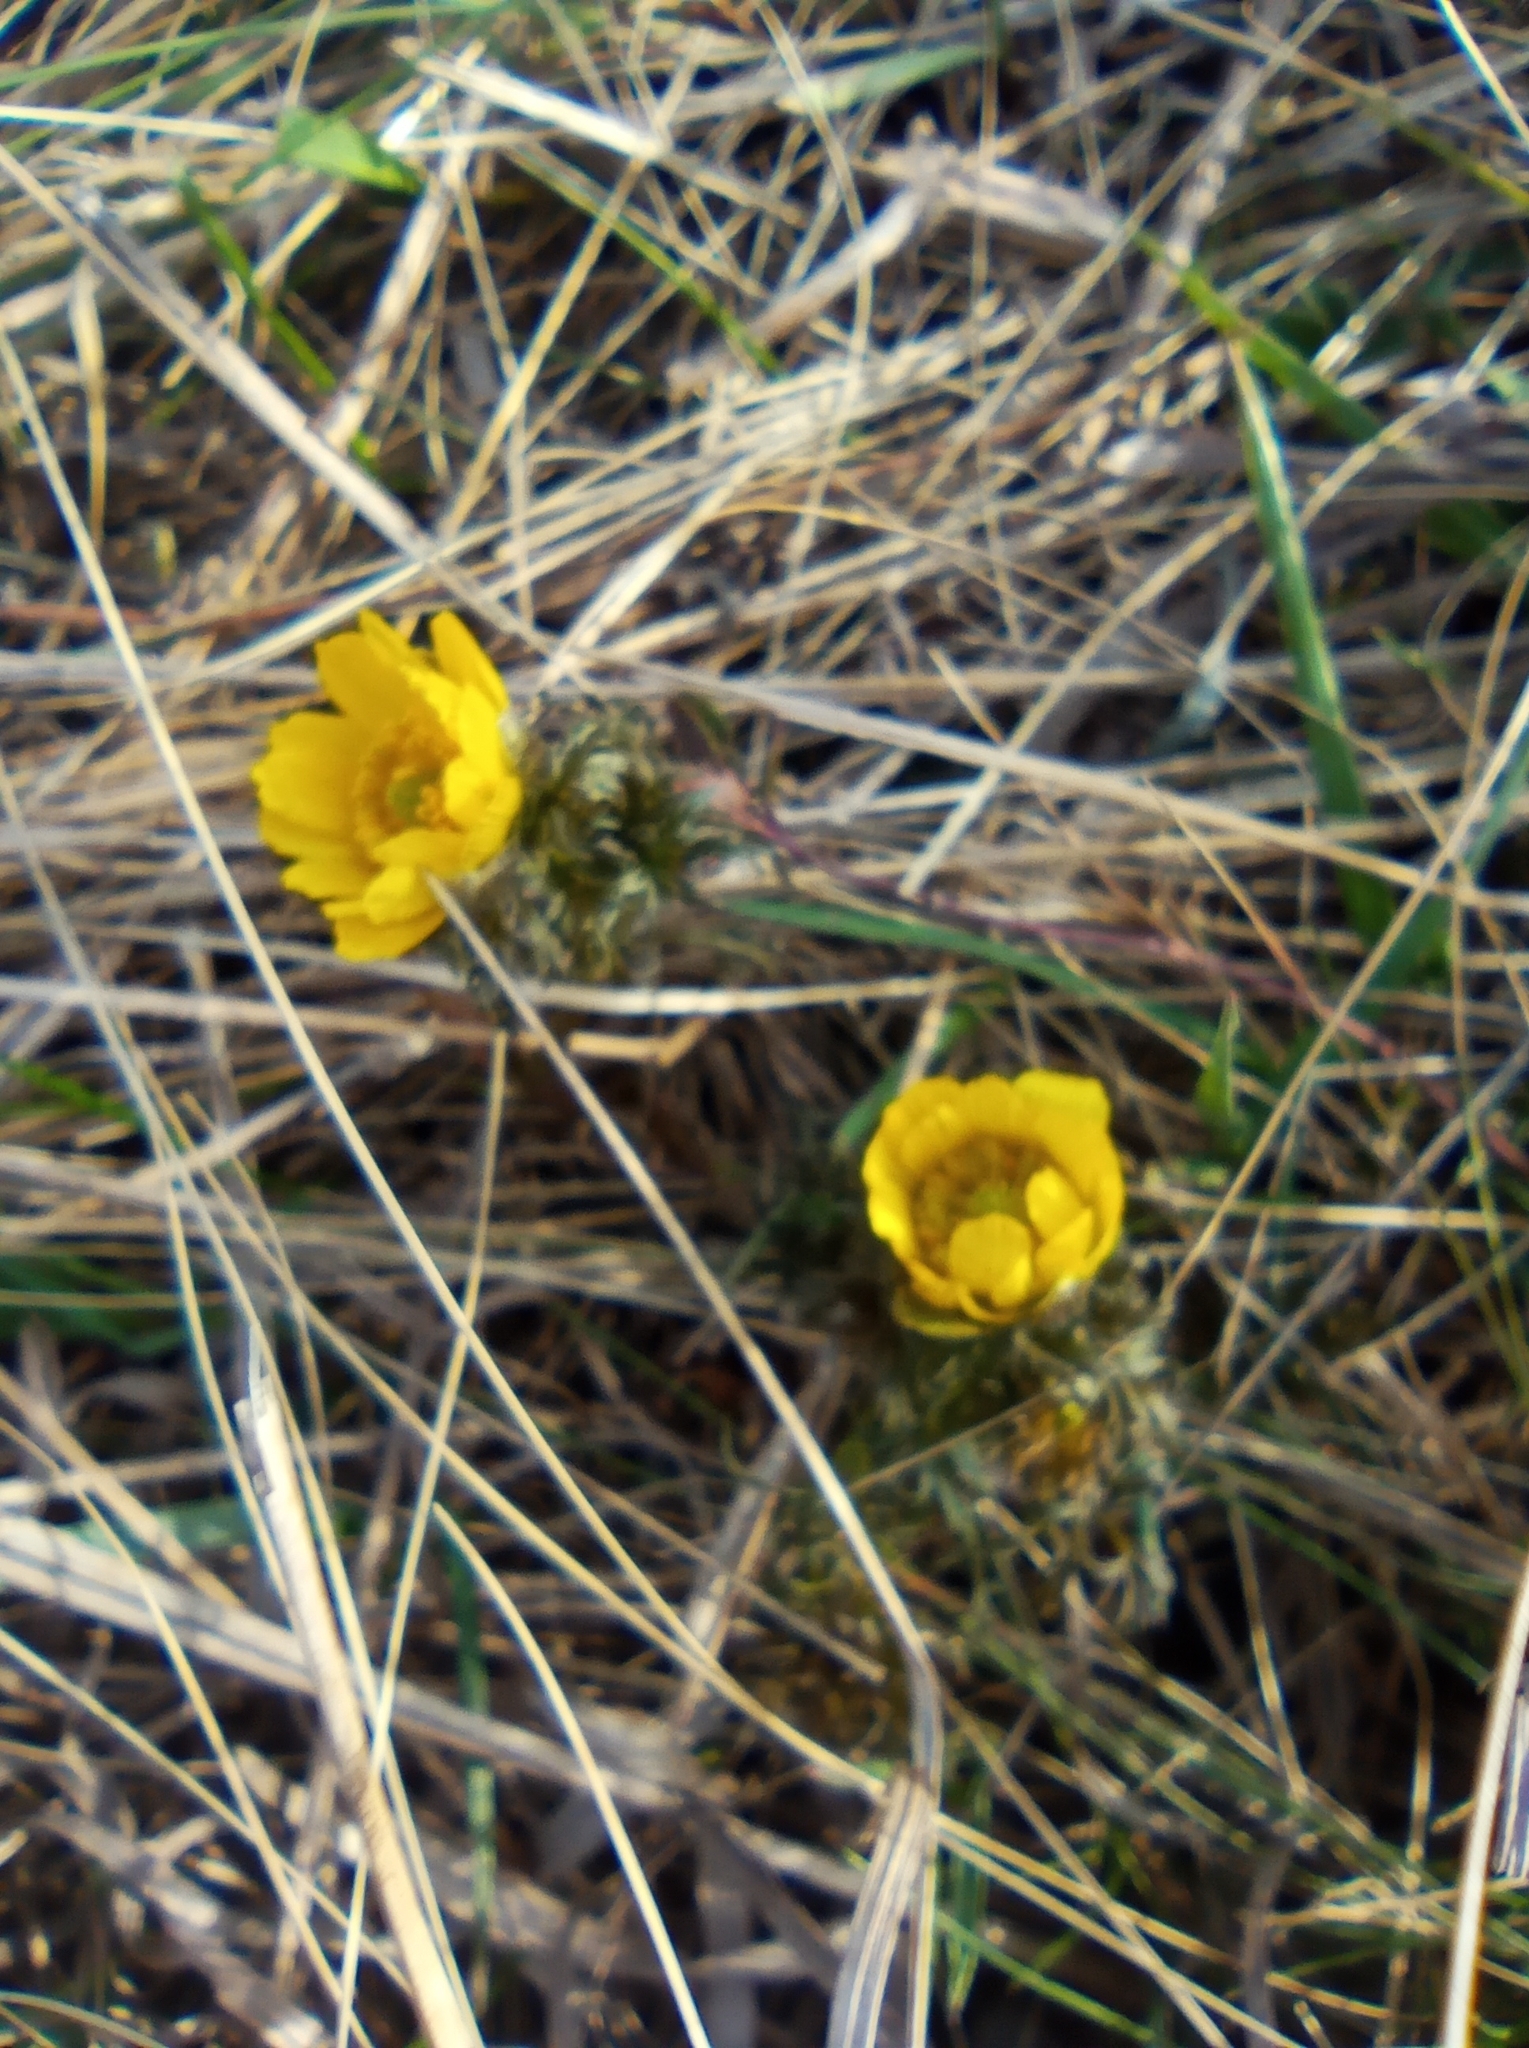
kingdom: Plantae
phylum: Tracheophyta
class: Magnoliopsida
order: Ranunculales
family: Ranunculaceae
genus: Adonis
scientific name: Adonis volgensis
